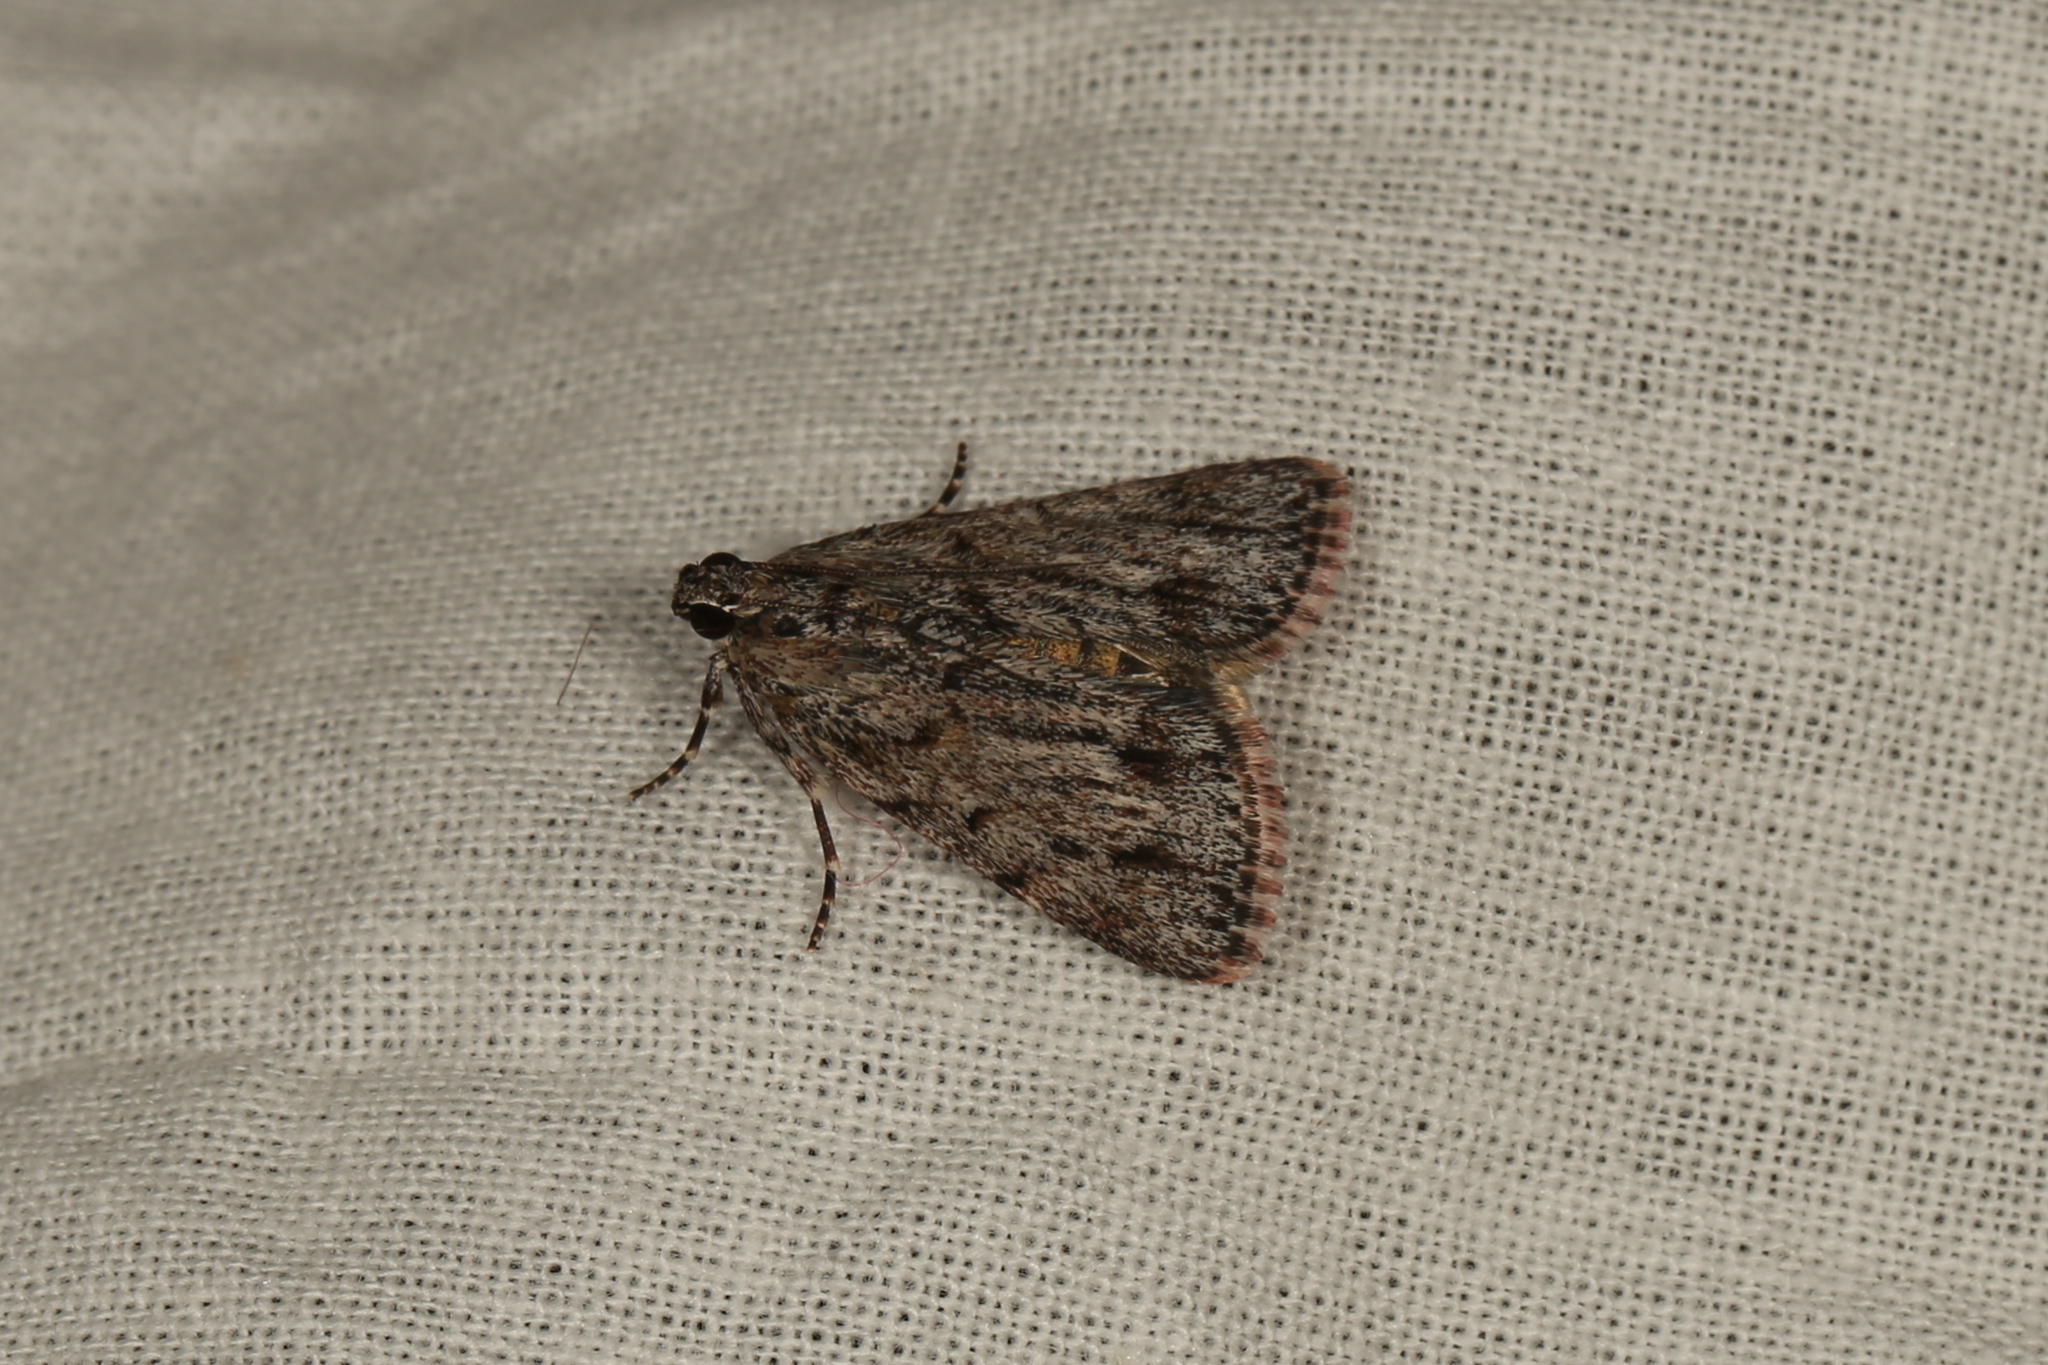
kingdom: Animalia
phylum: Arthropoda
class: Insecta
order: Lepidoptera
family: Pyralidae
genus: Spectrotrota
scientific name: Spectrotrota fimbrialis
